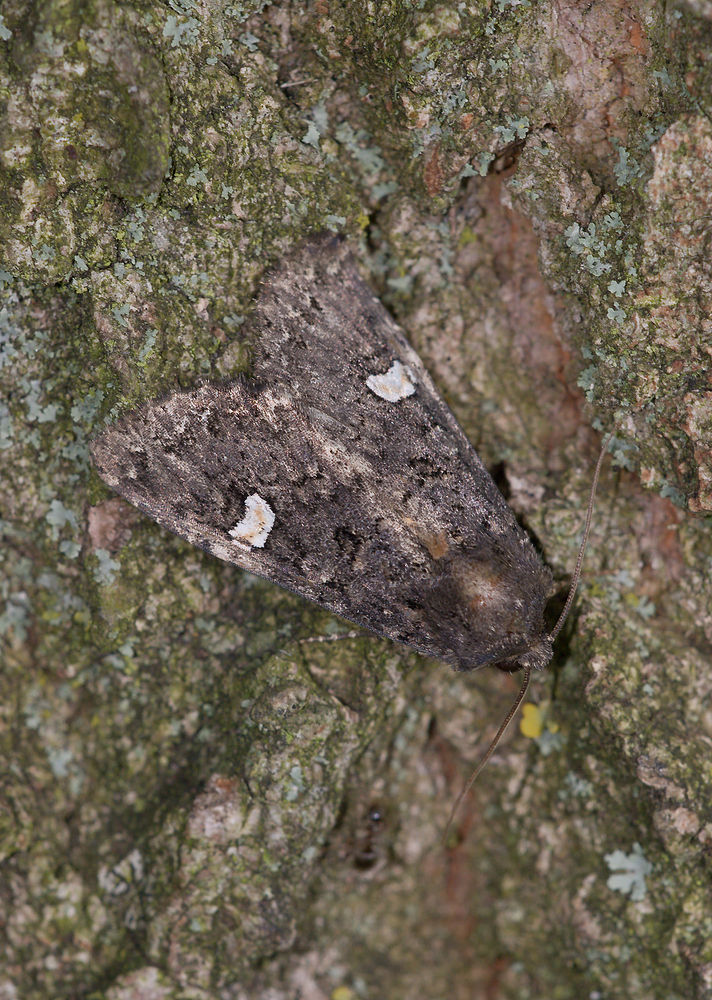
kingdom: Animalia
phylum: Arthropoda
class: Insecta
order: Lepidoptera
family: Noctuidae
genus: Melanchra
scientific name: Melanchra persicariae
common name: Dot moth
